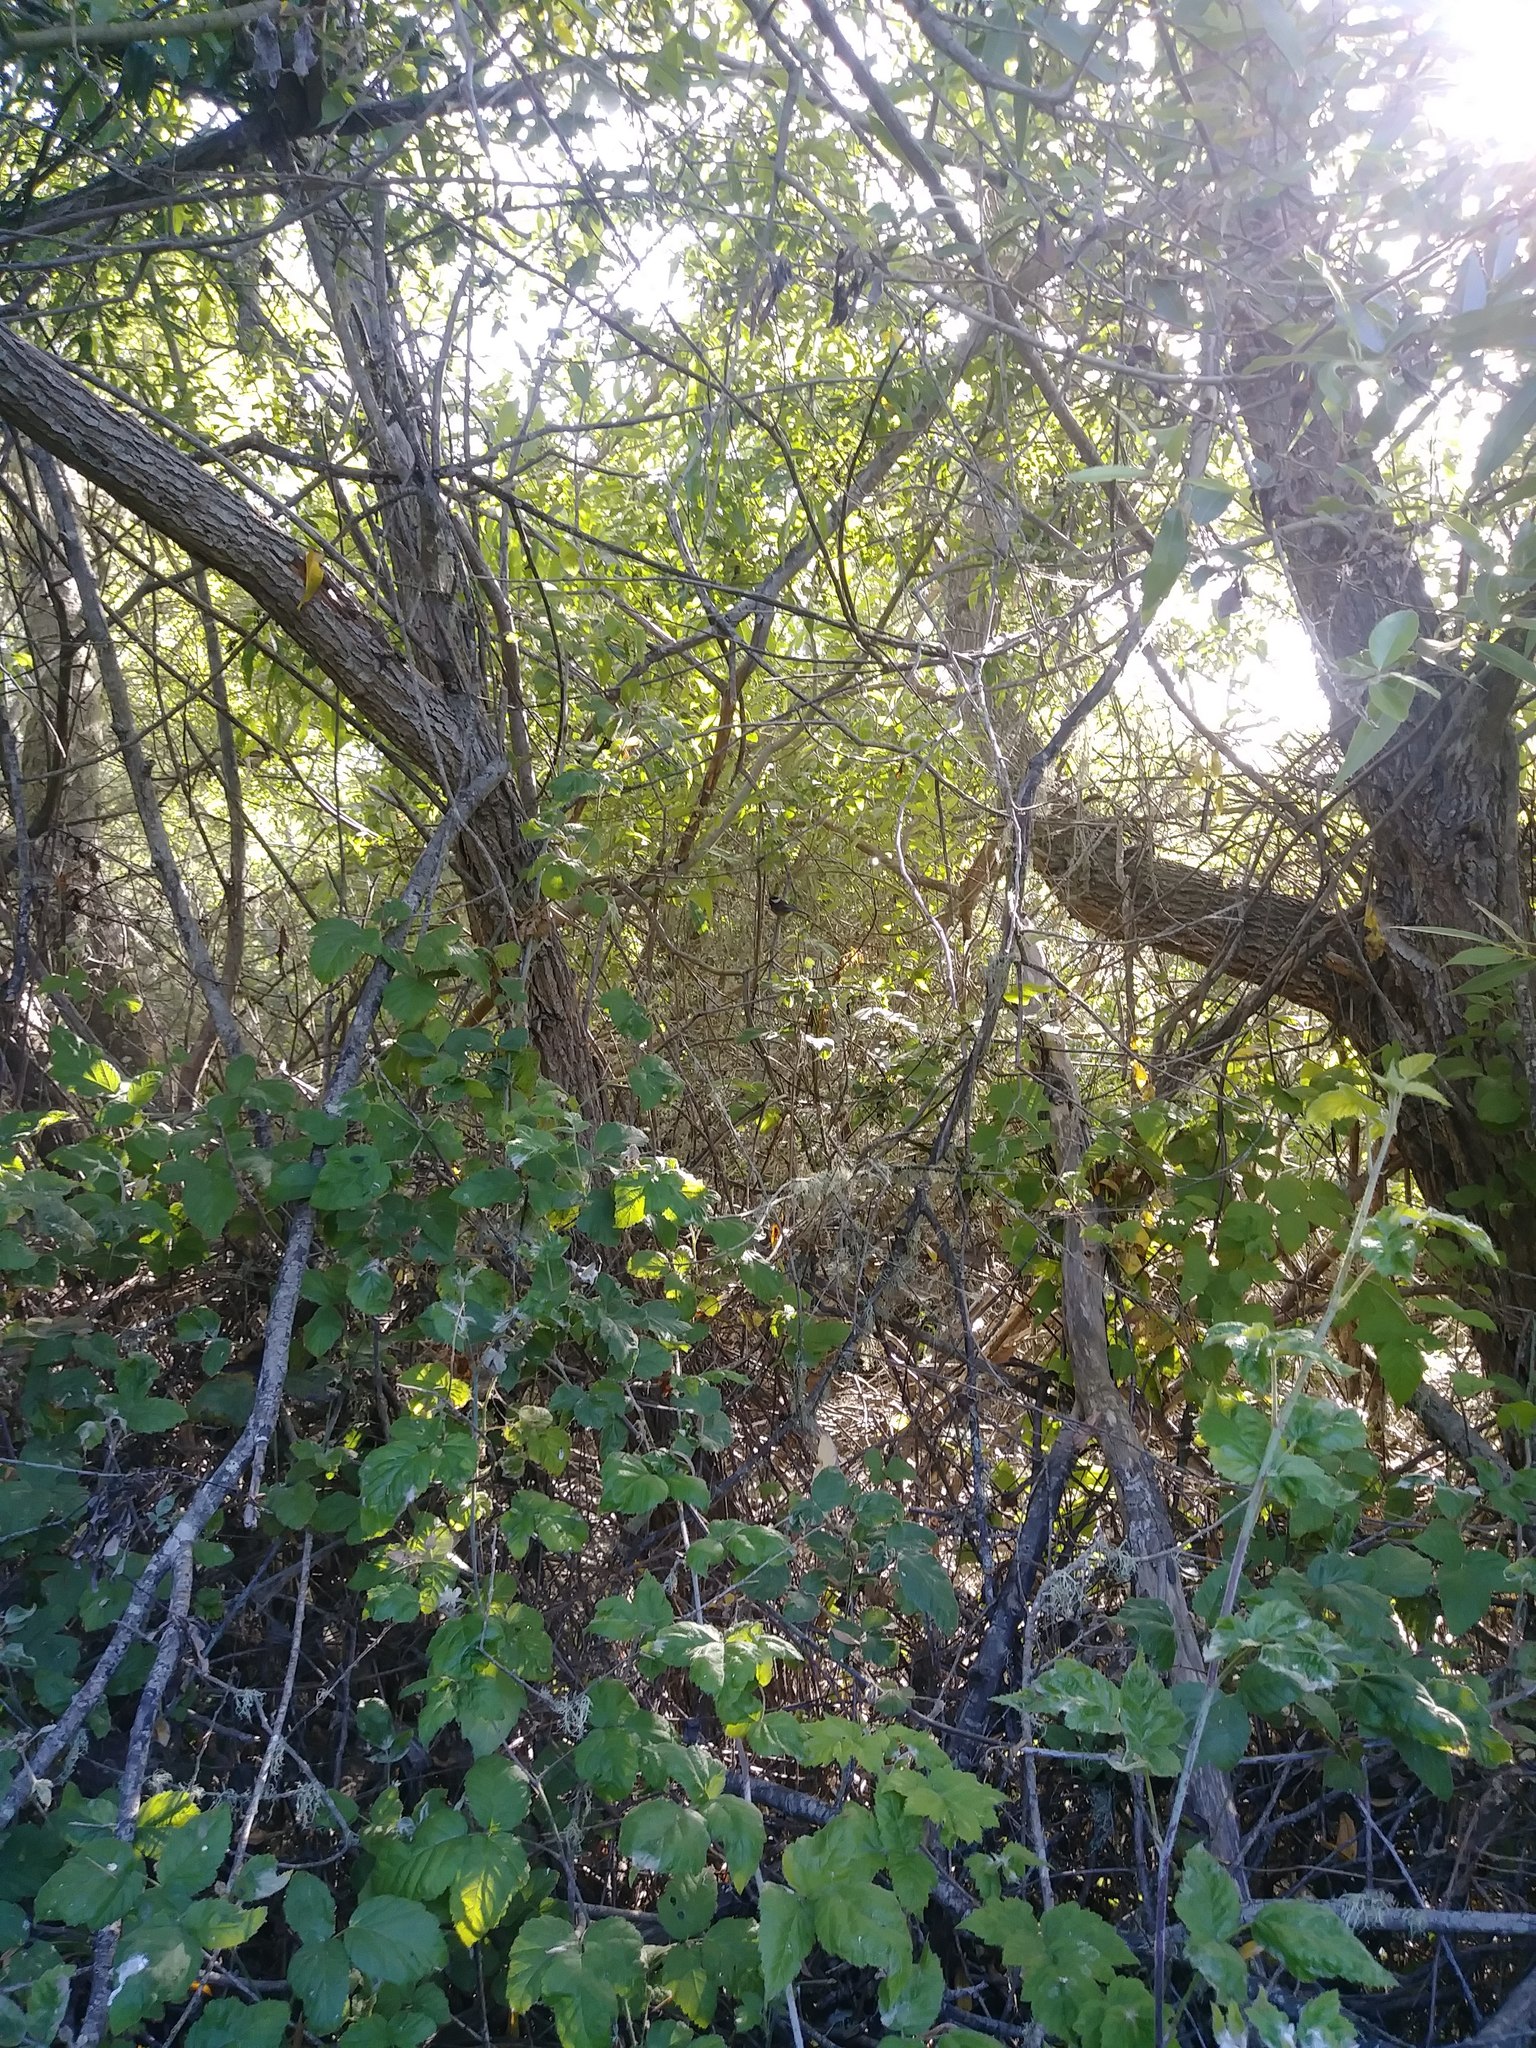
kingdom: Animalia
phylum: Chordata
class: Aves
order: Passeriformes
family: Paridae
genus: Poecile
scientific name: Poecile rufescens
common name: Chestnut-backed chickadee
